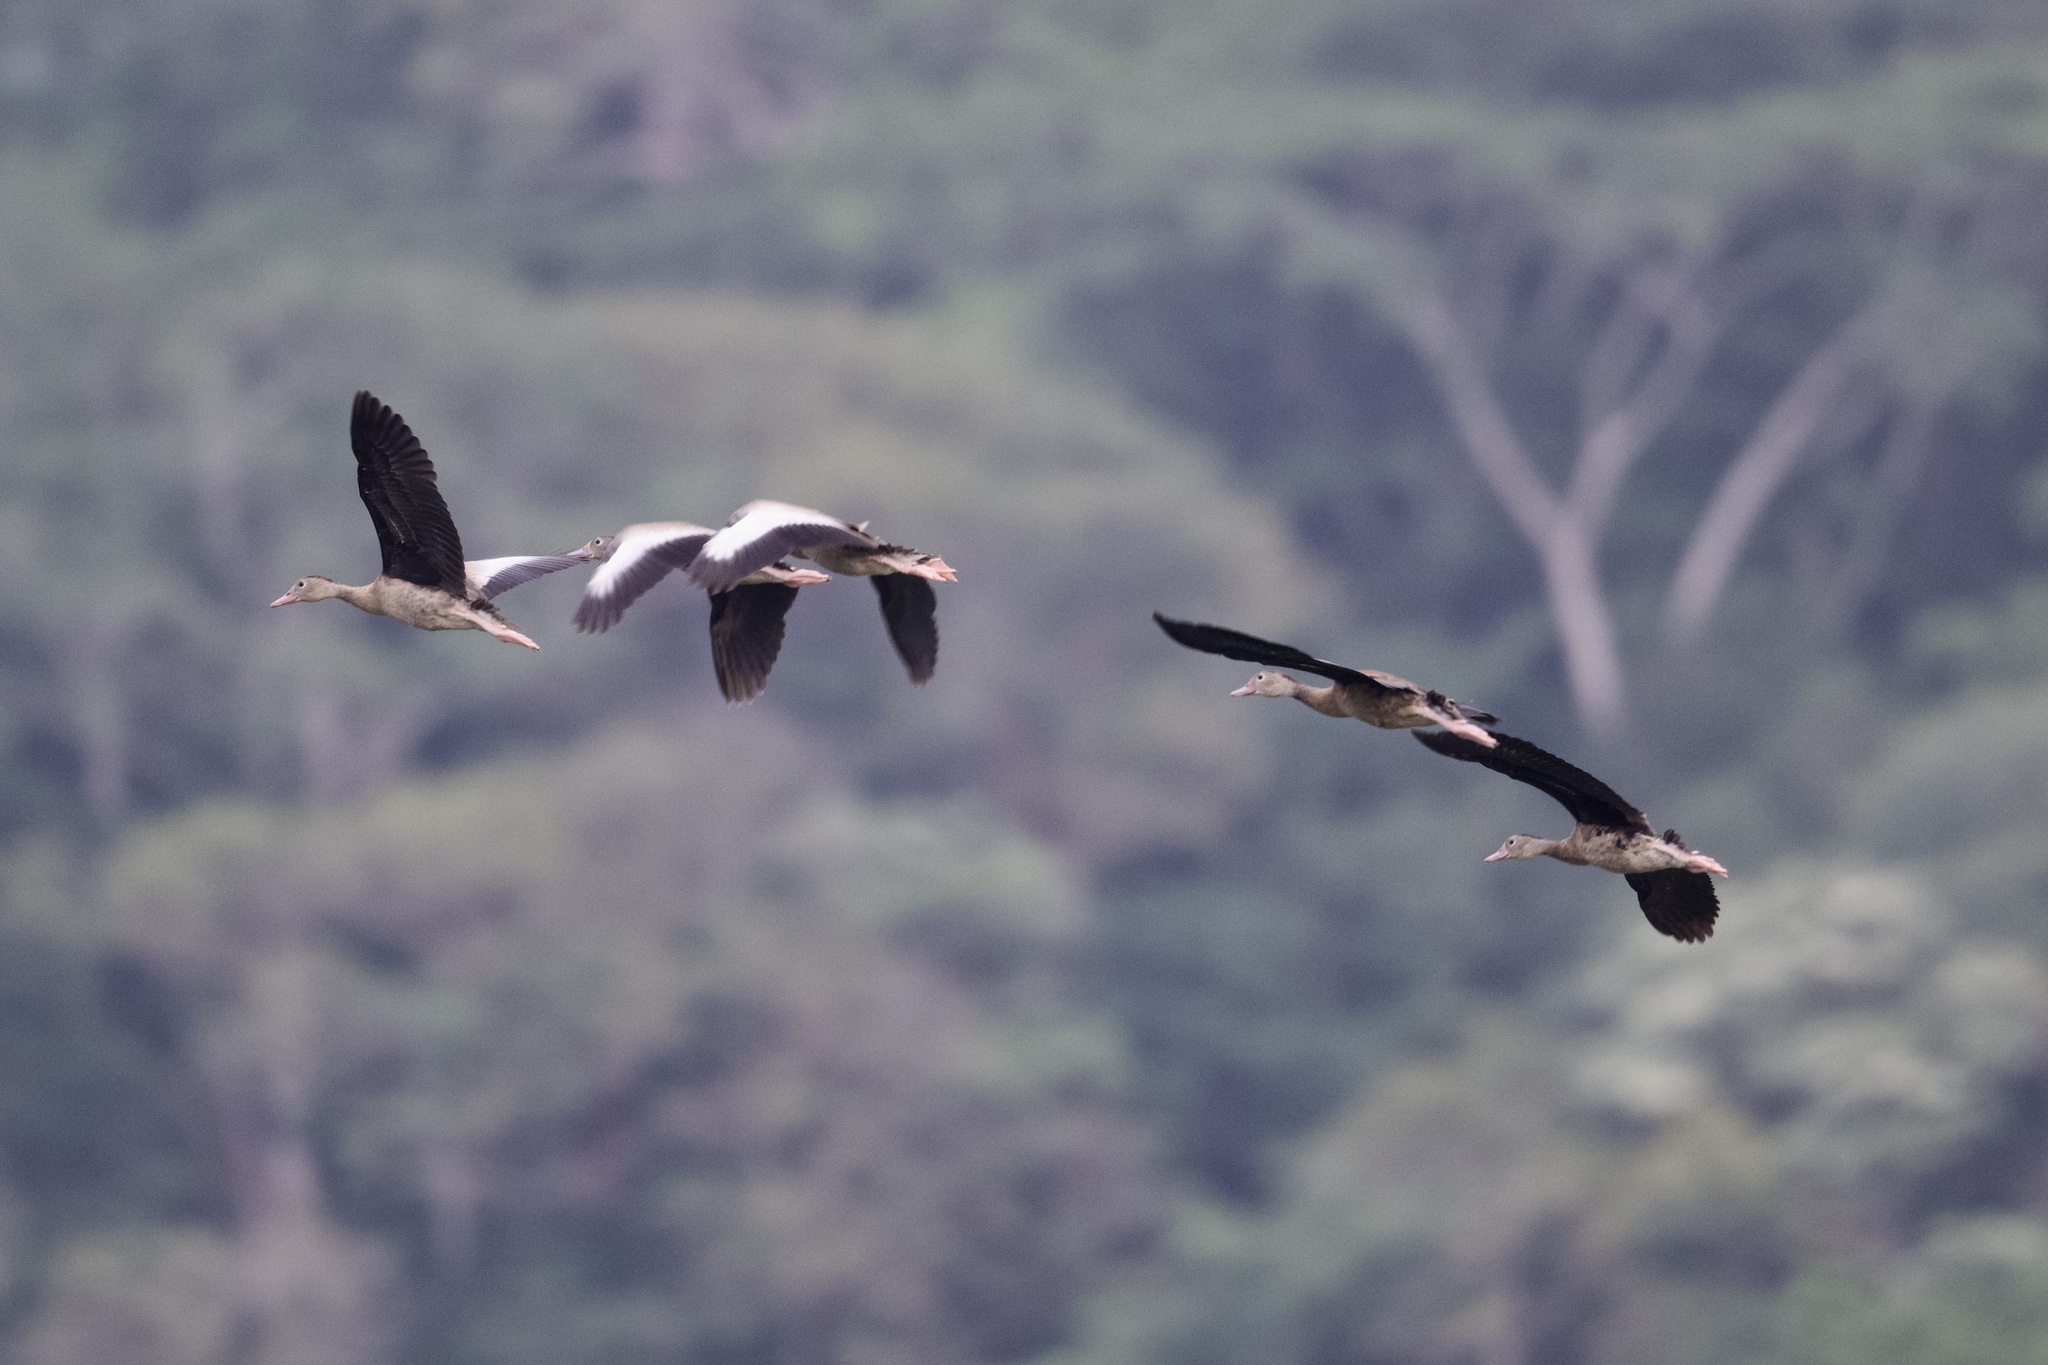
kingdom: Animalia
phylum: Chordata
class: Aves
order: Anseriformes
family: Anatidae
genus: Dendrocygna
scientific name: Dendrocygna autumnalis
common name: Black-bellied whistling duck
